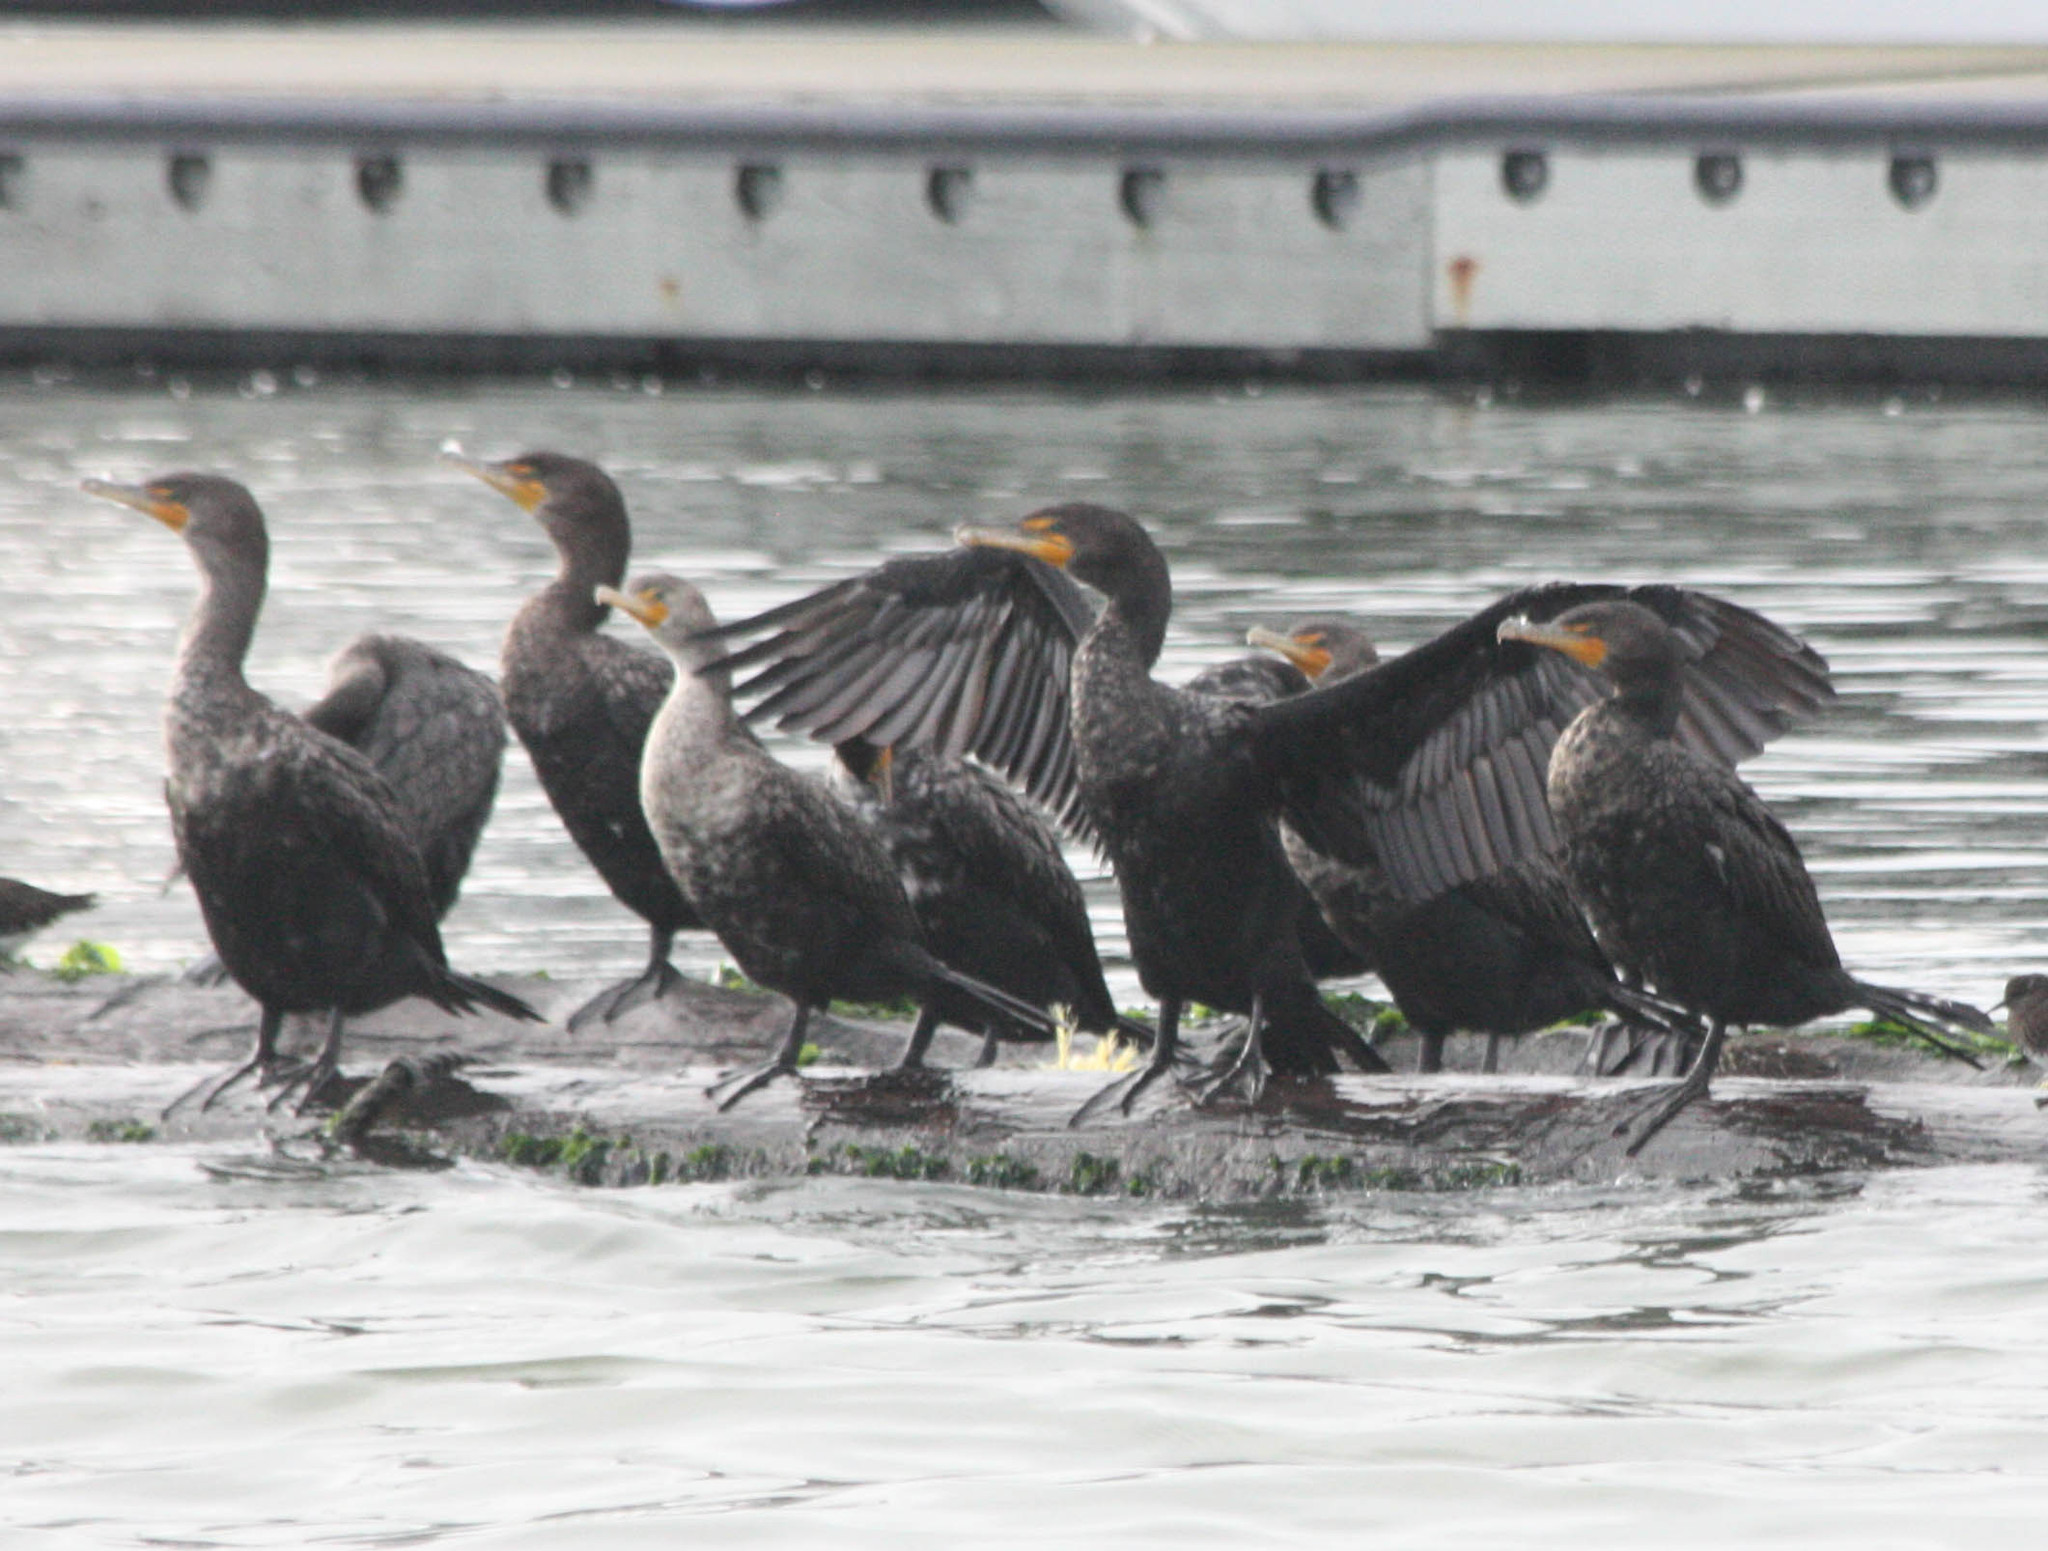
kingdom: Animalia
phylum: Chordata
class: Aves
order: Suliformes
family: Phalacrocoracidae
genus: Phalacrocorax
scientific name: Phalacrocorax auritus
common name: Double-crested cormorant
